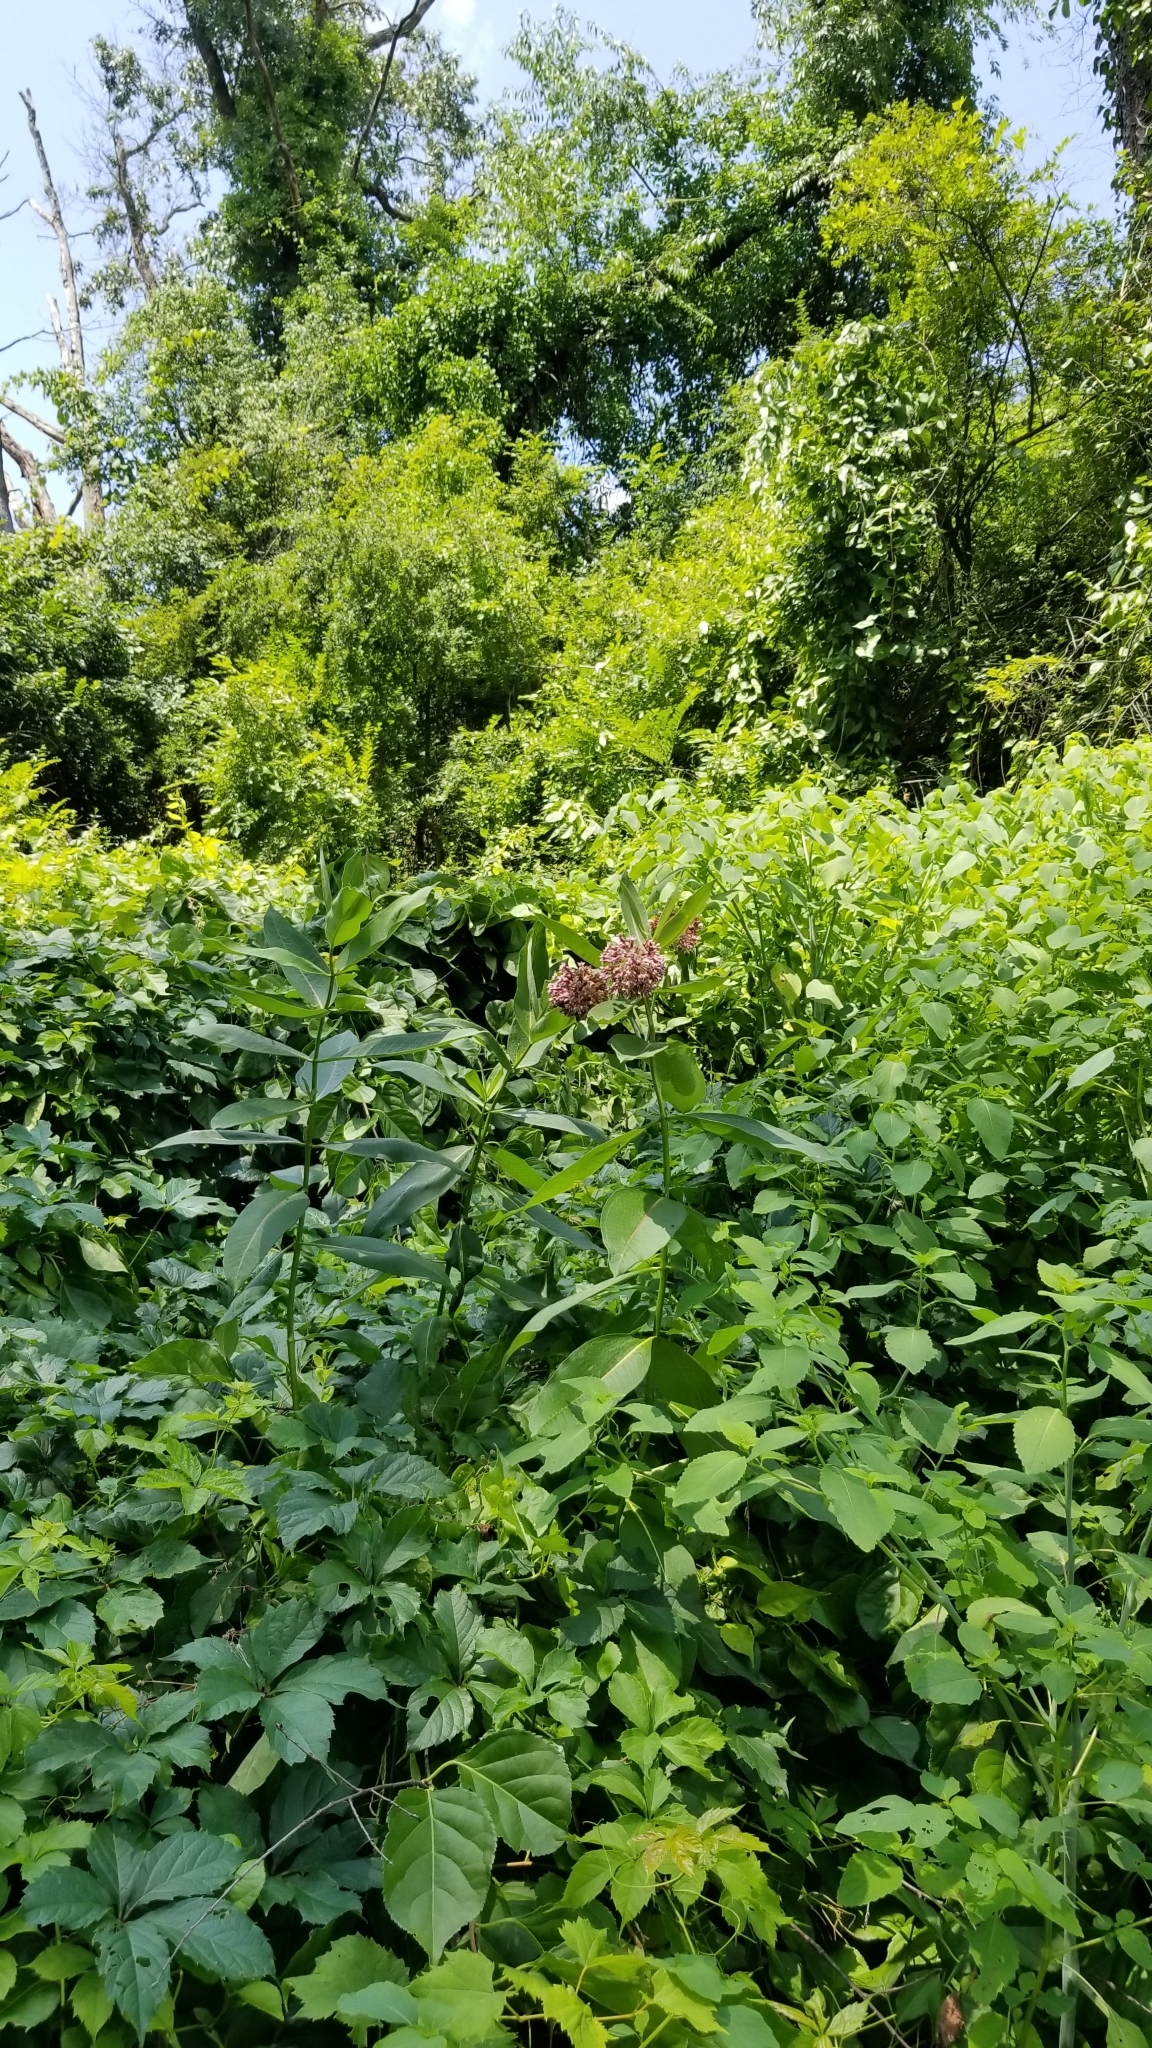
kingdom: Plantae
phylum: Tracheophyta
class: Magnoliopsida
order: Gentianales
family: Apocynaceae
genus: Asclepias
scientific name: Asclepias syriaca
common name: Common milkweed
